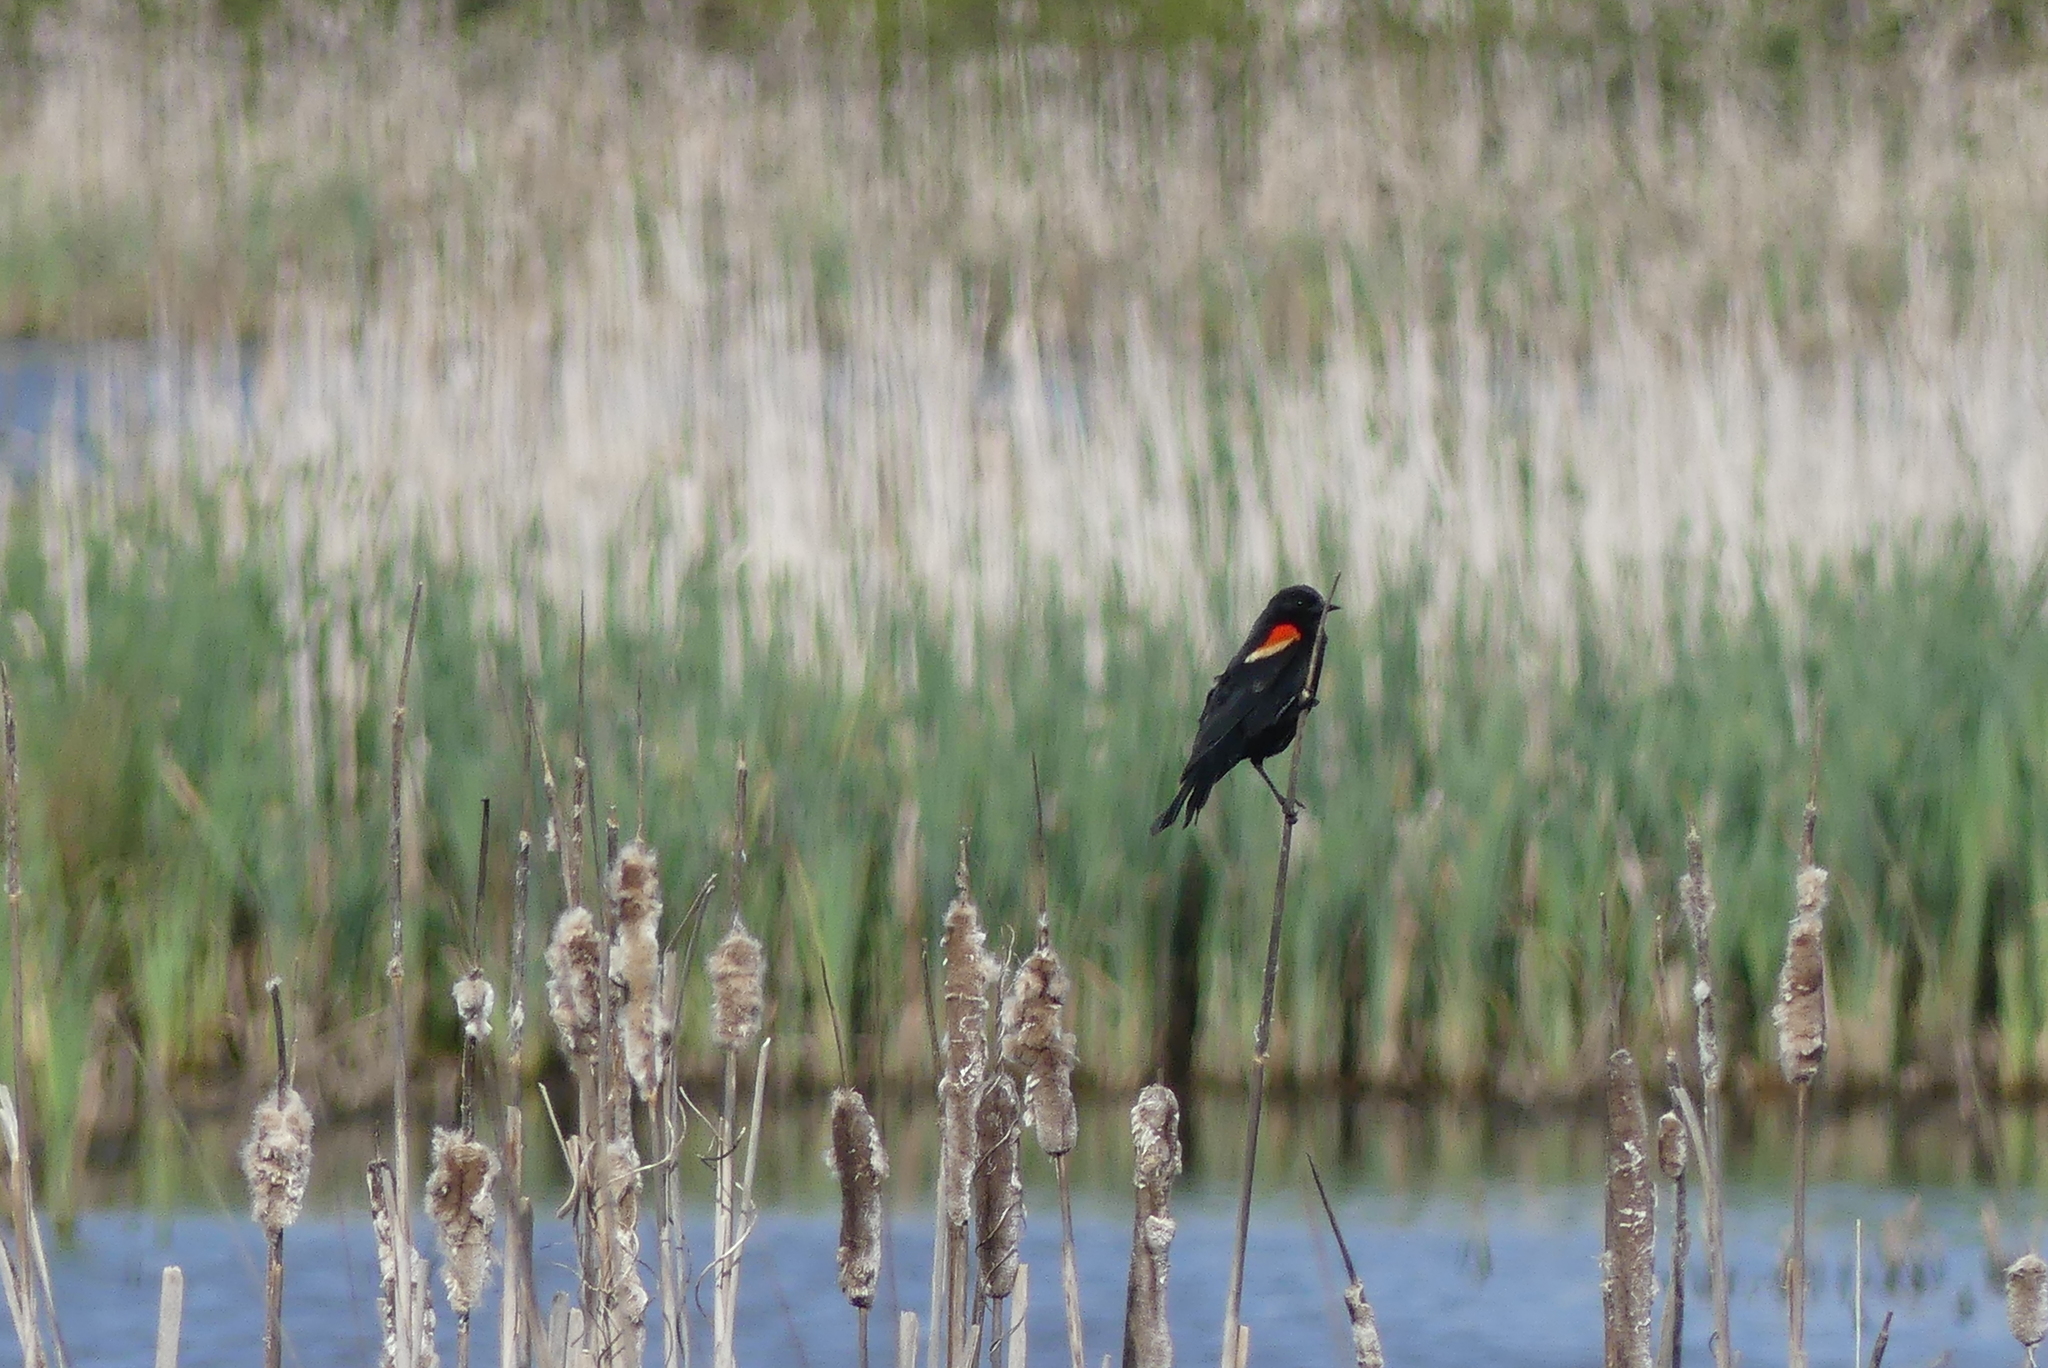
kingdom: Animalia
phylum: Chordata
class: Aves
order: Passeriformes
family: Icteridae
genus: Agelaius
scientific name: Agelaius phoeniceus
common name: Red-winged blackbird
